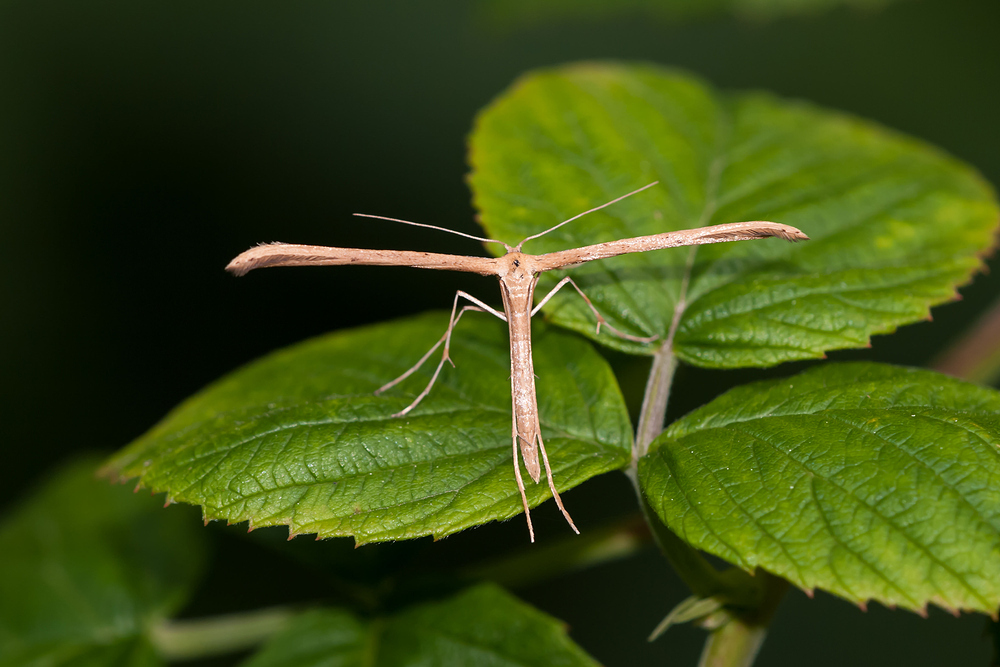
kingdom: Animalia
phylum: Arthropoda
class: Insecta
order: Lepidoptera
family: Pterophoridae
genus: Emmelina
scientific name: Emmelina monodactyla
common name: Common plume
